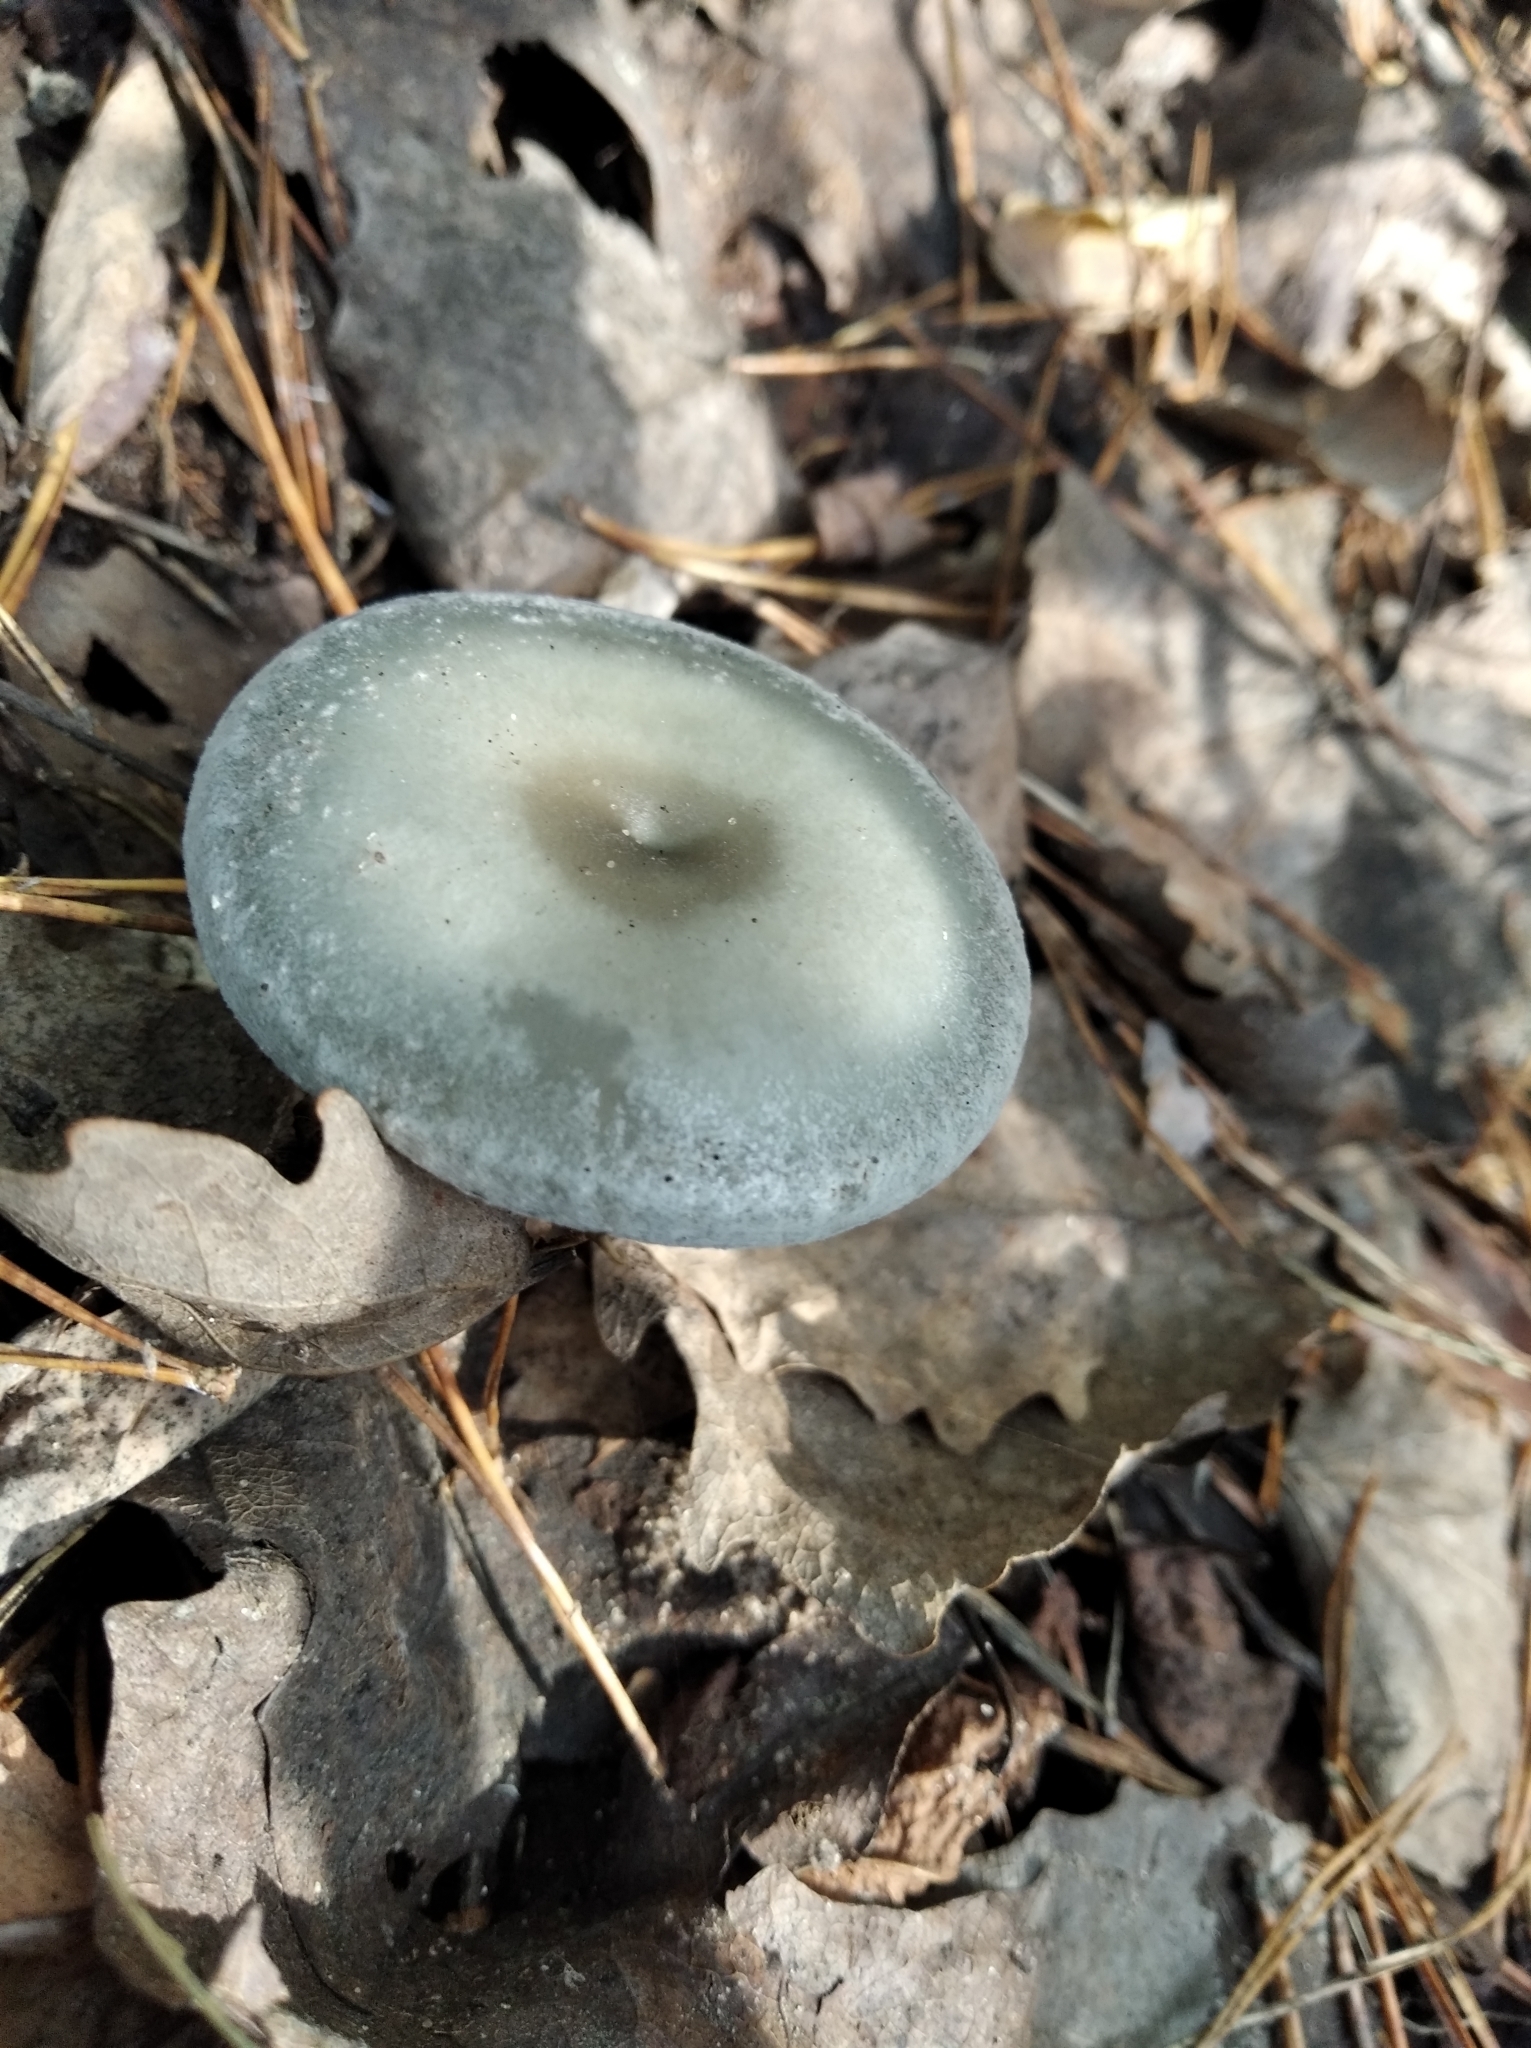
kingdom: Fungi
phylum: Basidiomycota
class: Agaricomycetes
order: Agaricales
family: Tricholomataceae
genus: Collybia
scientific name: Collybia
